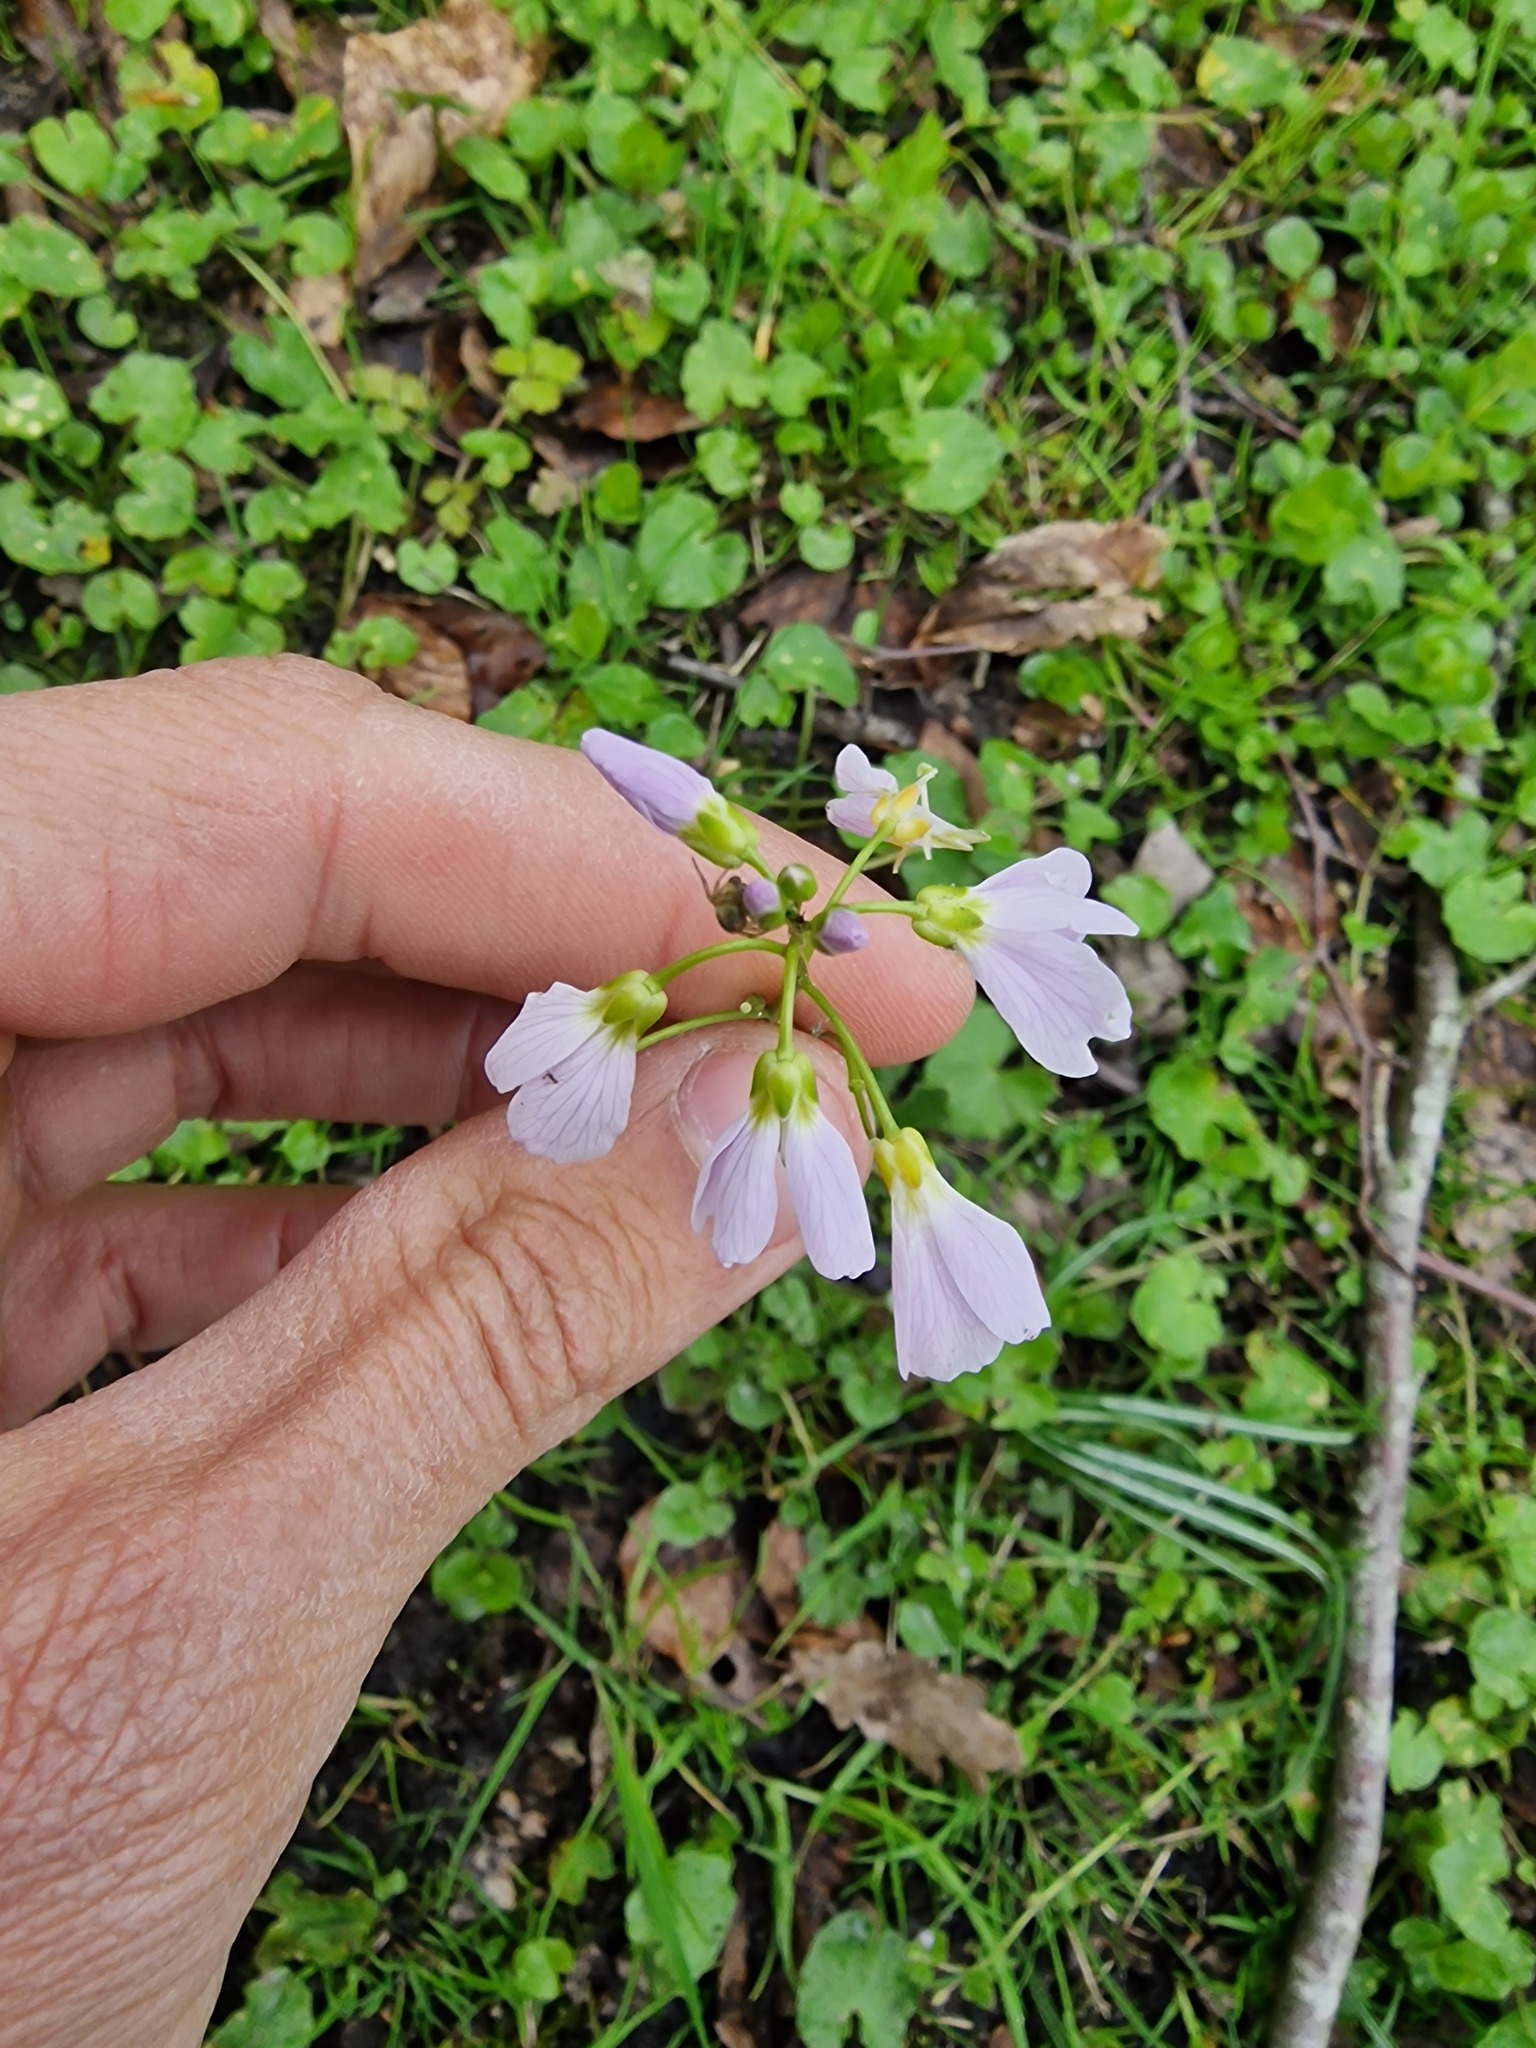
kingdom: Plantae
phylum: Tracheophyta
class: Magnoliopsida
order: Brassicales
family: Brassicaceae
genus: Cardamine
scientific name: Cardamine pratensis
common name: Cuckoo flower
